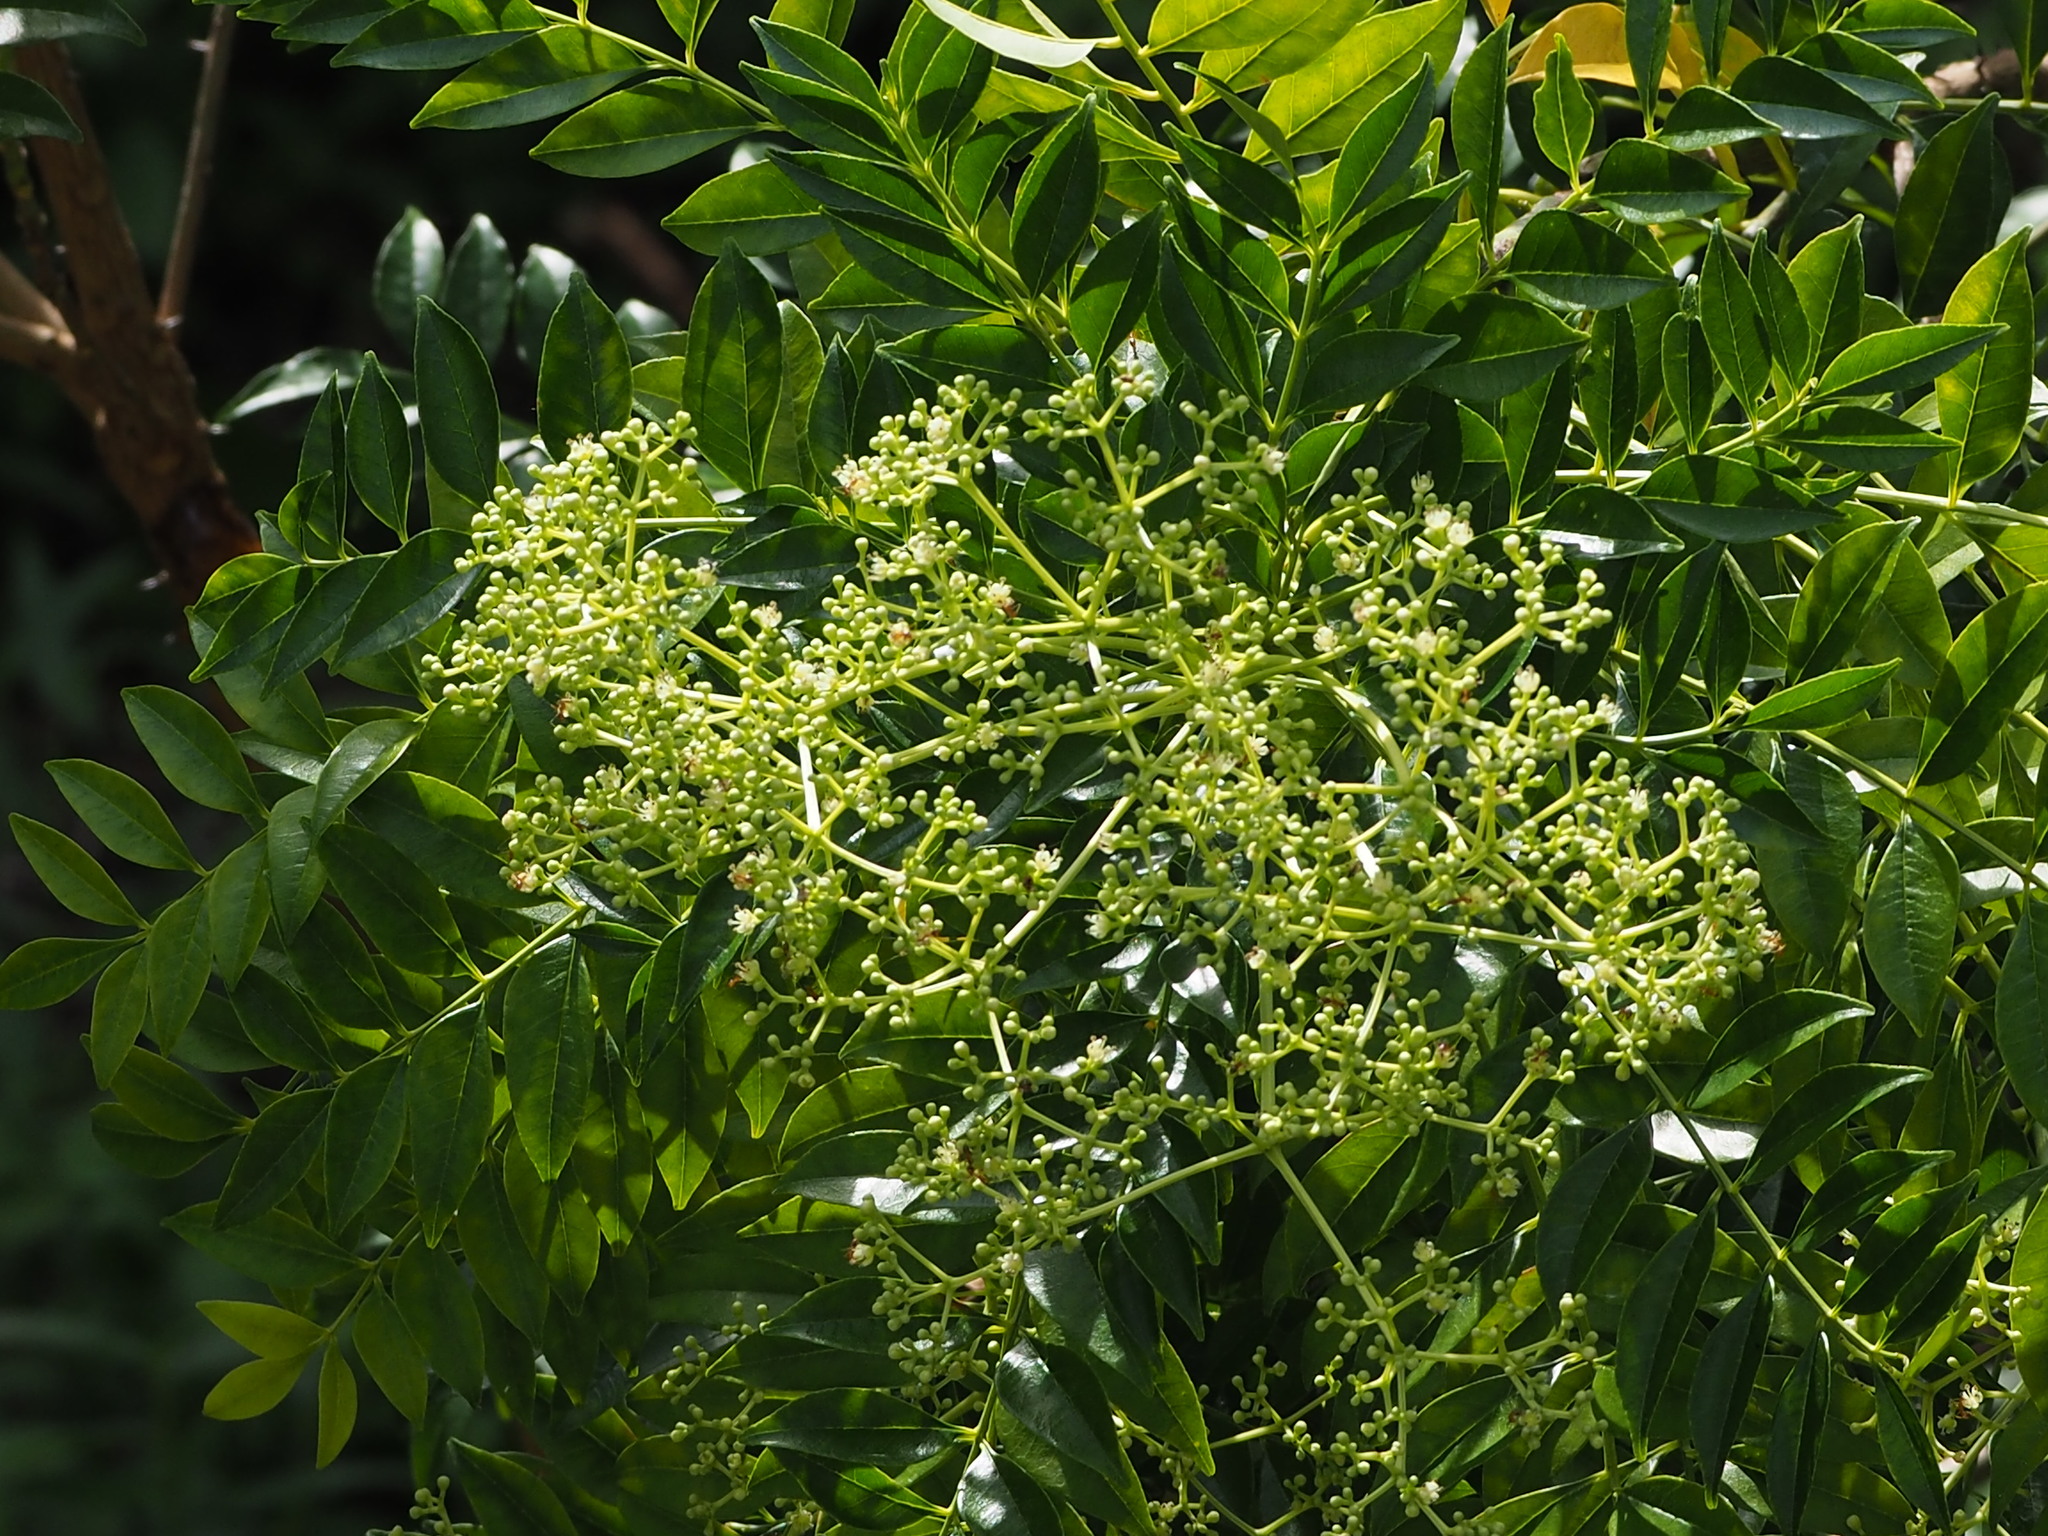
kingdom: Plantae
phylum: Tracheophyta
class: Magnoliopsida
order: Sapindales
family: Rutaceae
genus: Zanthoxylum
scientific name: Zanthoxylum avicennae
